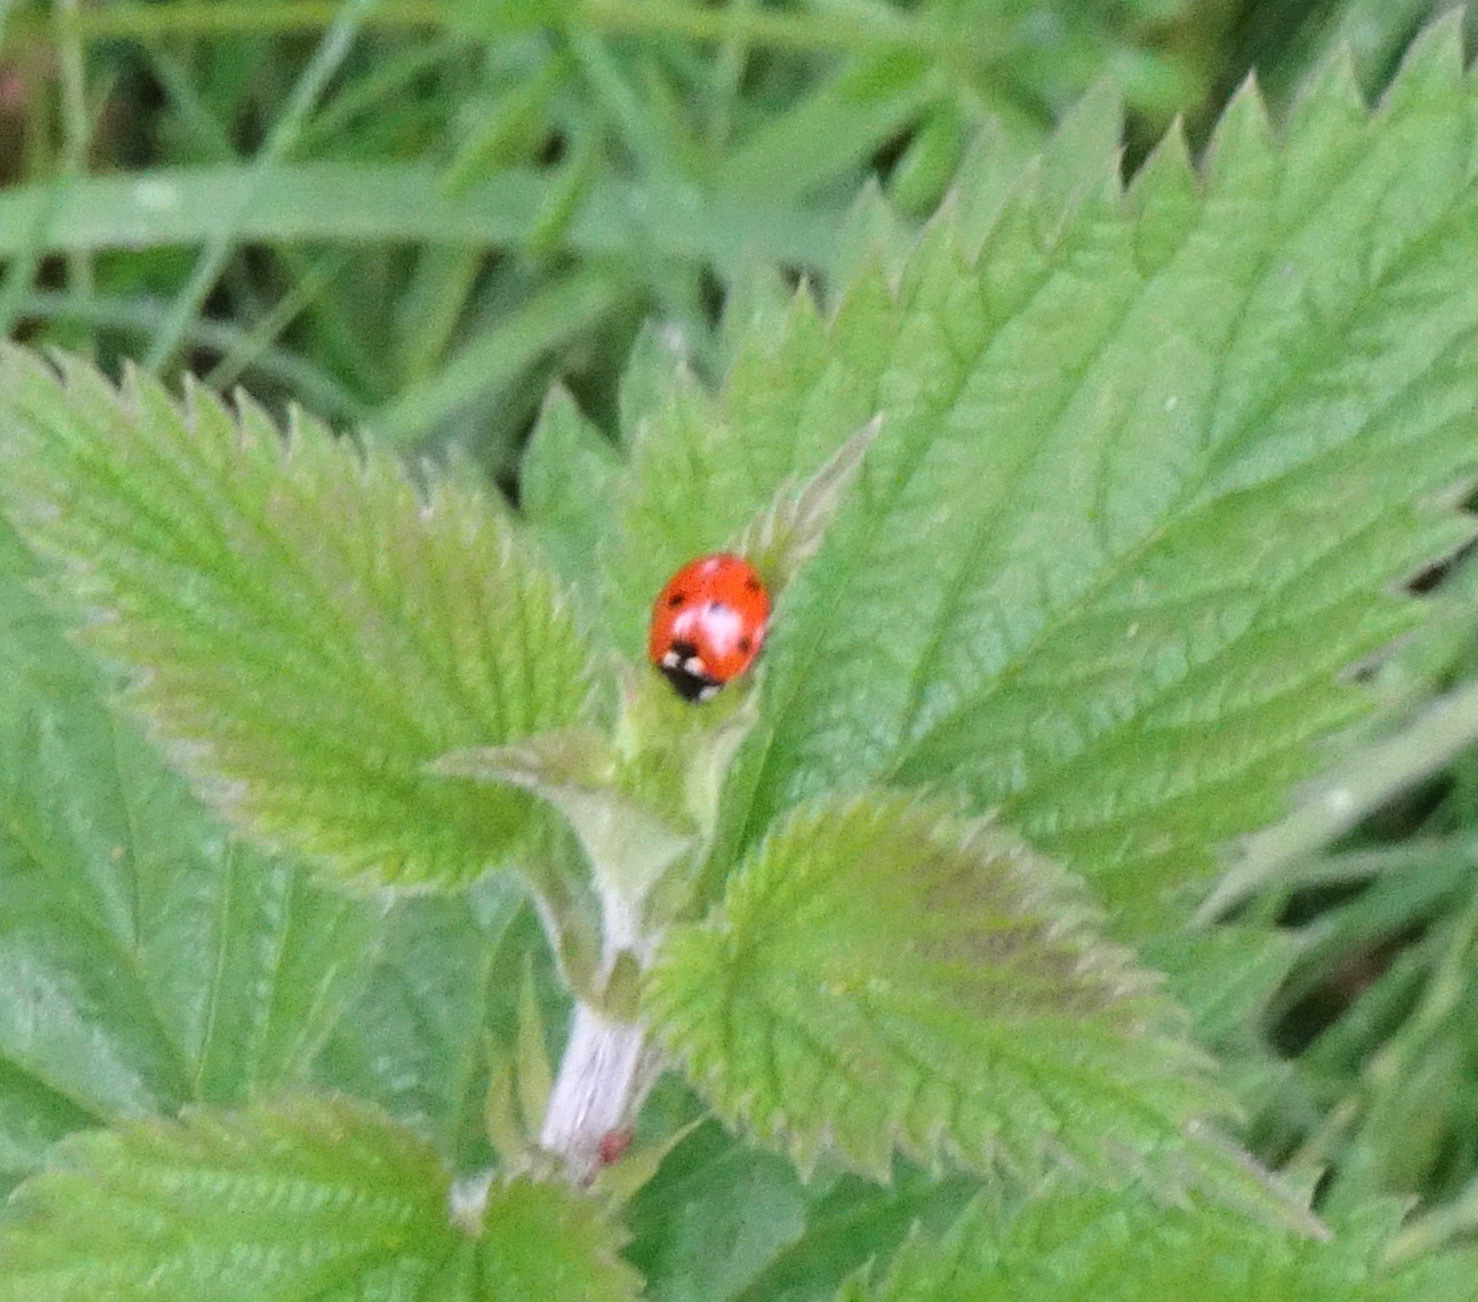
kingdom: Animalia
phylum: Arthropoda
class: Insecta
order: Coleoptera
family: Coccinellidae
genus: Coccinella
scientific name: Coccinella septempunctata
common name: Sevenspotted lady beetle
